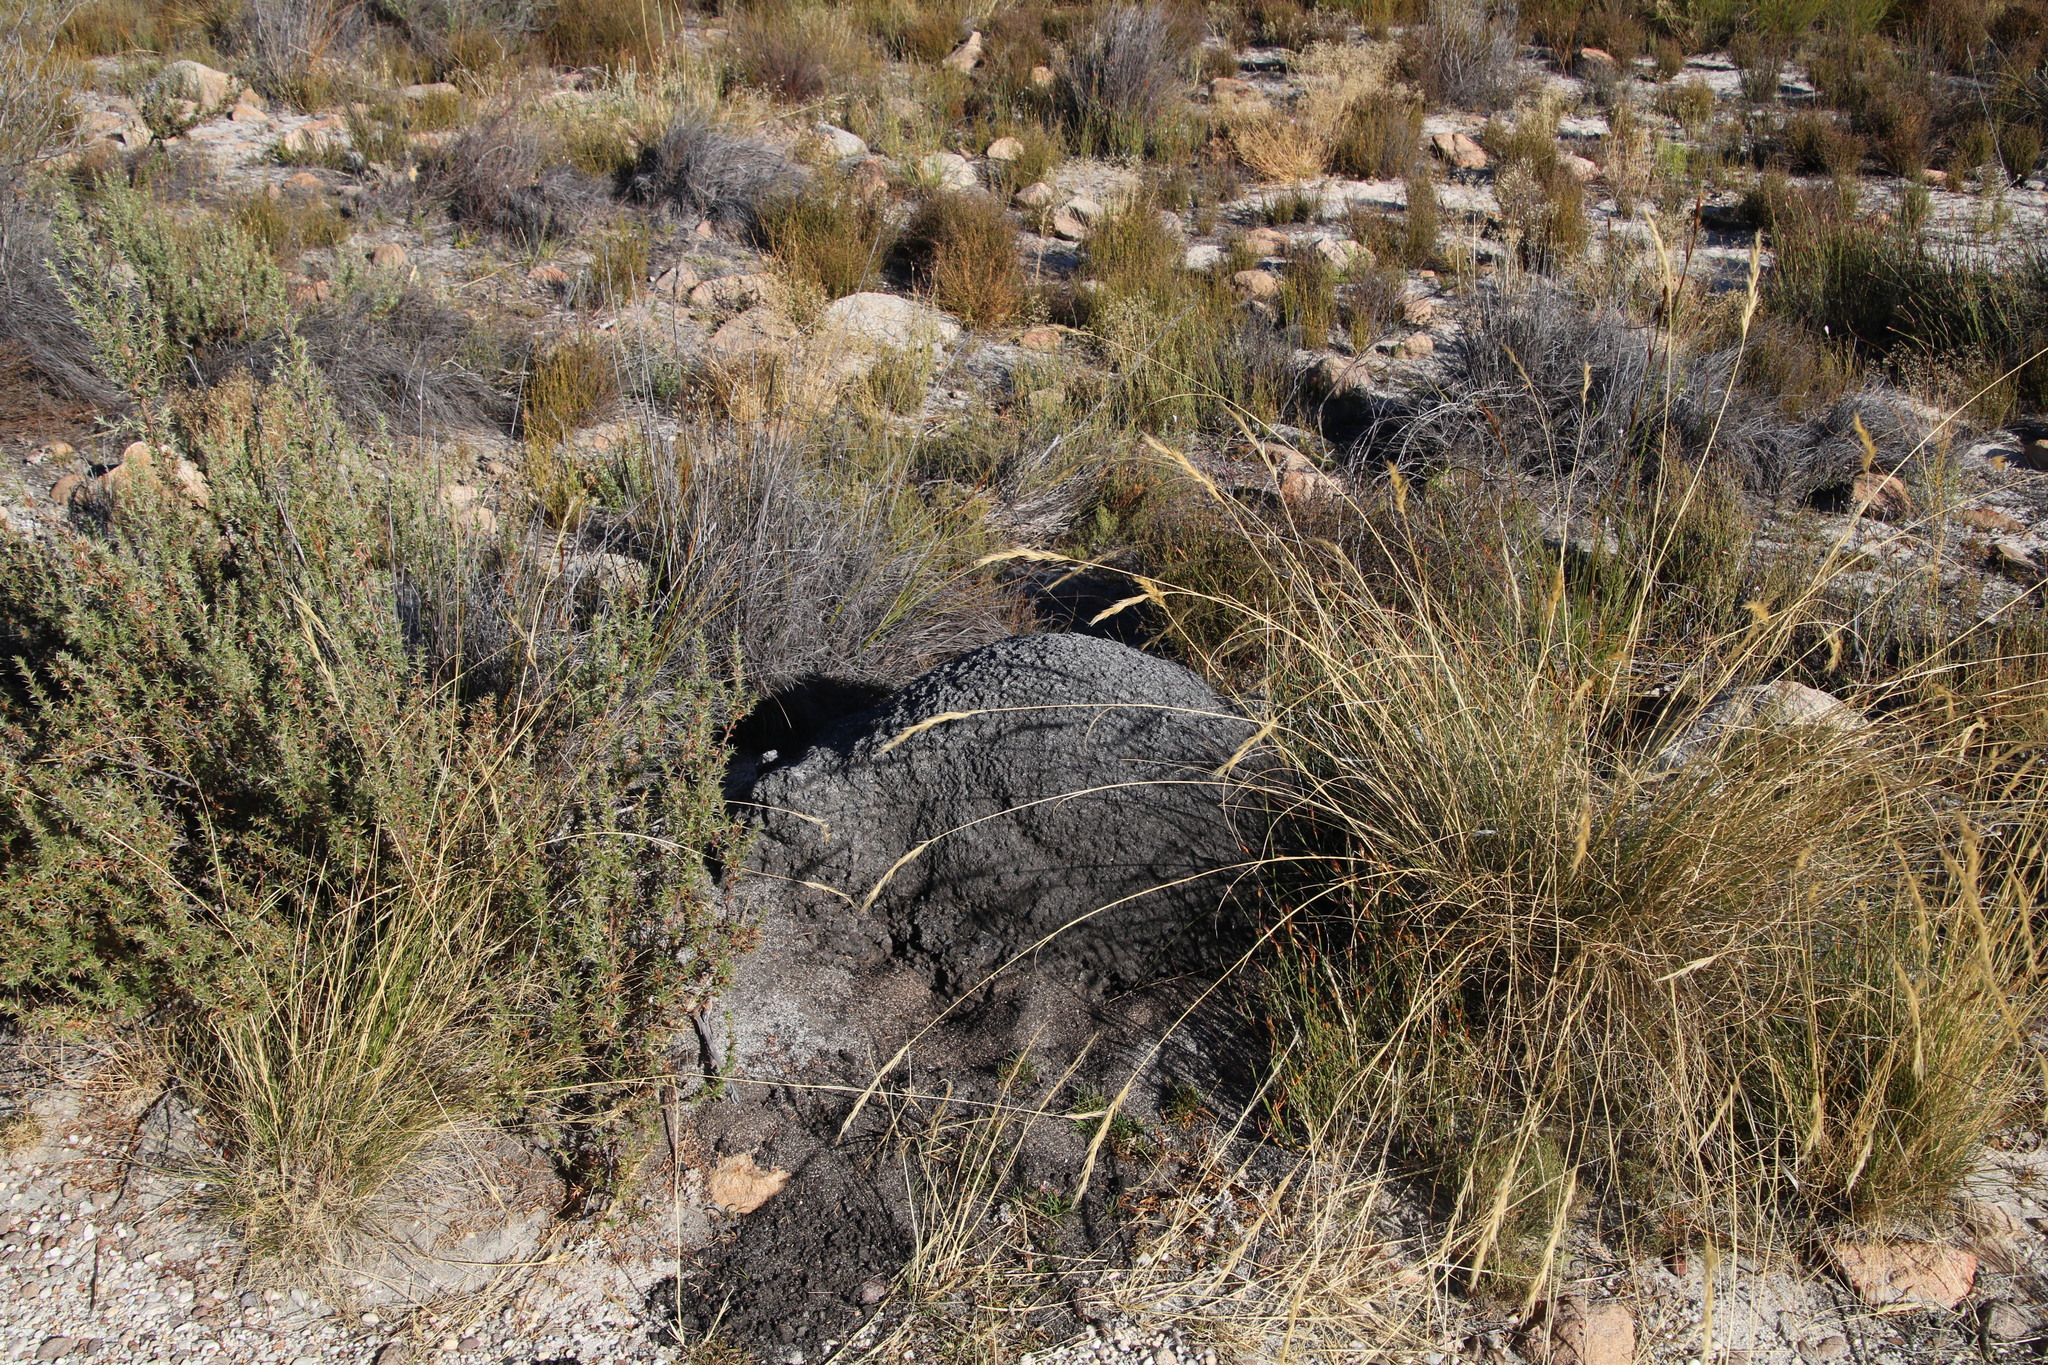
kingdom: Animalia
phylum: Arthropoda
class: Insecta
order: Blattodea
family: Termitidae
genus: Amitermes
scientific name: Amitermes hastatus
